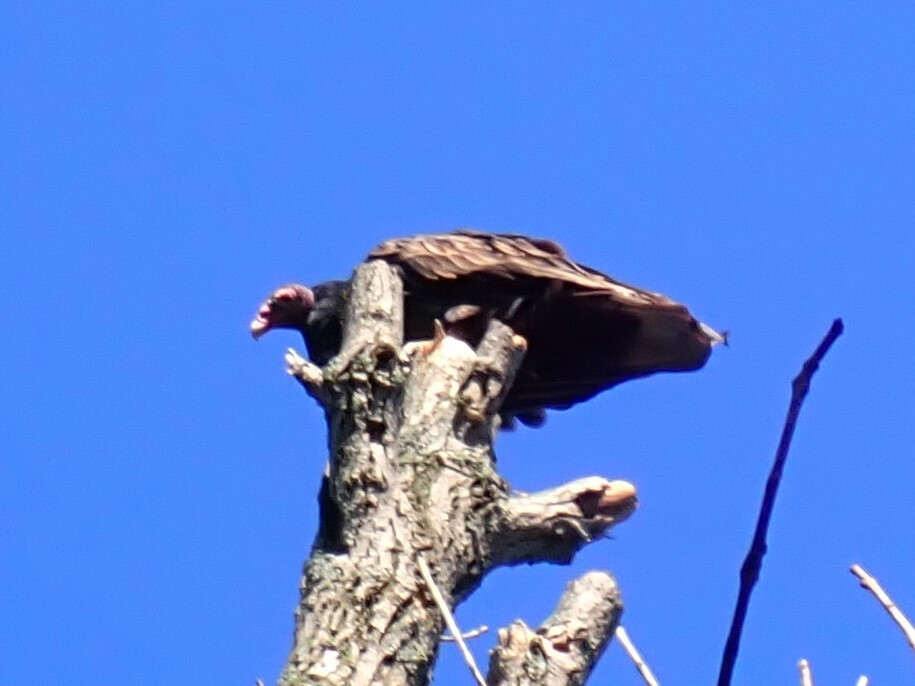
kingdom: Animalia
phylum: Chordata
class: Aves
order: Accipitriformes
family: Cathartidae
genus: Cathartes
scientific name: Cathartes aura
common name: Turkey vulture
